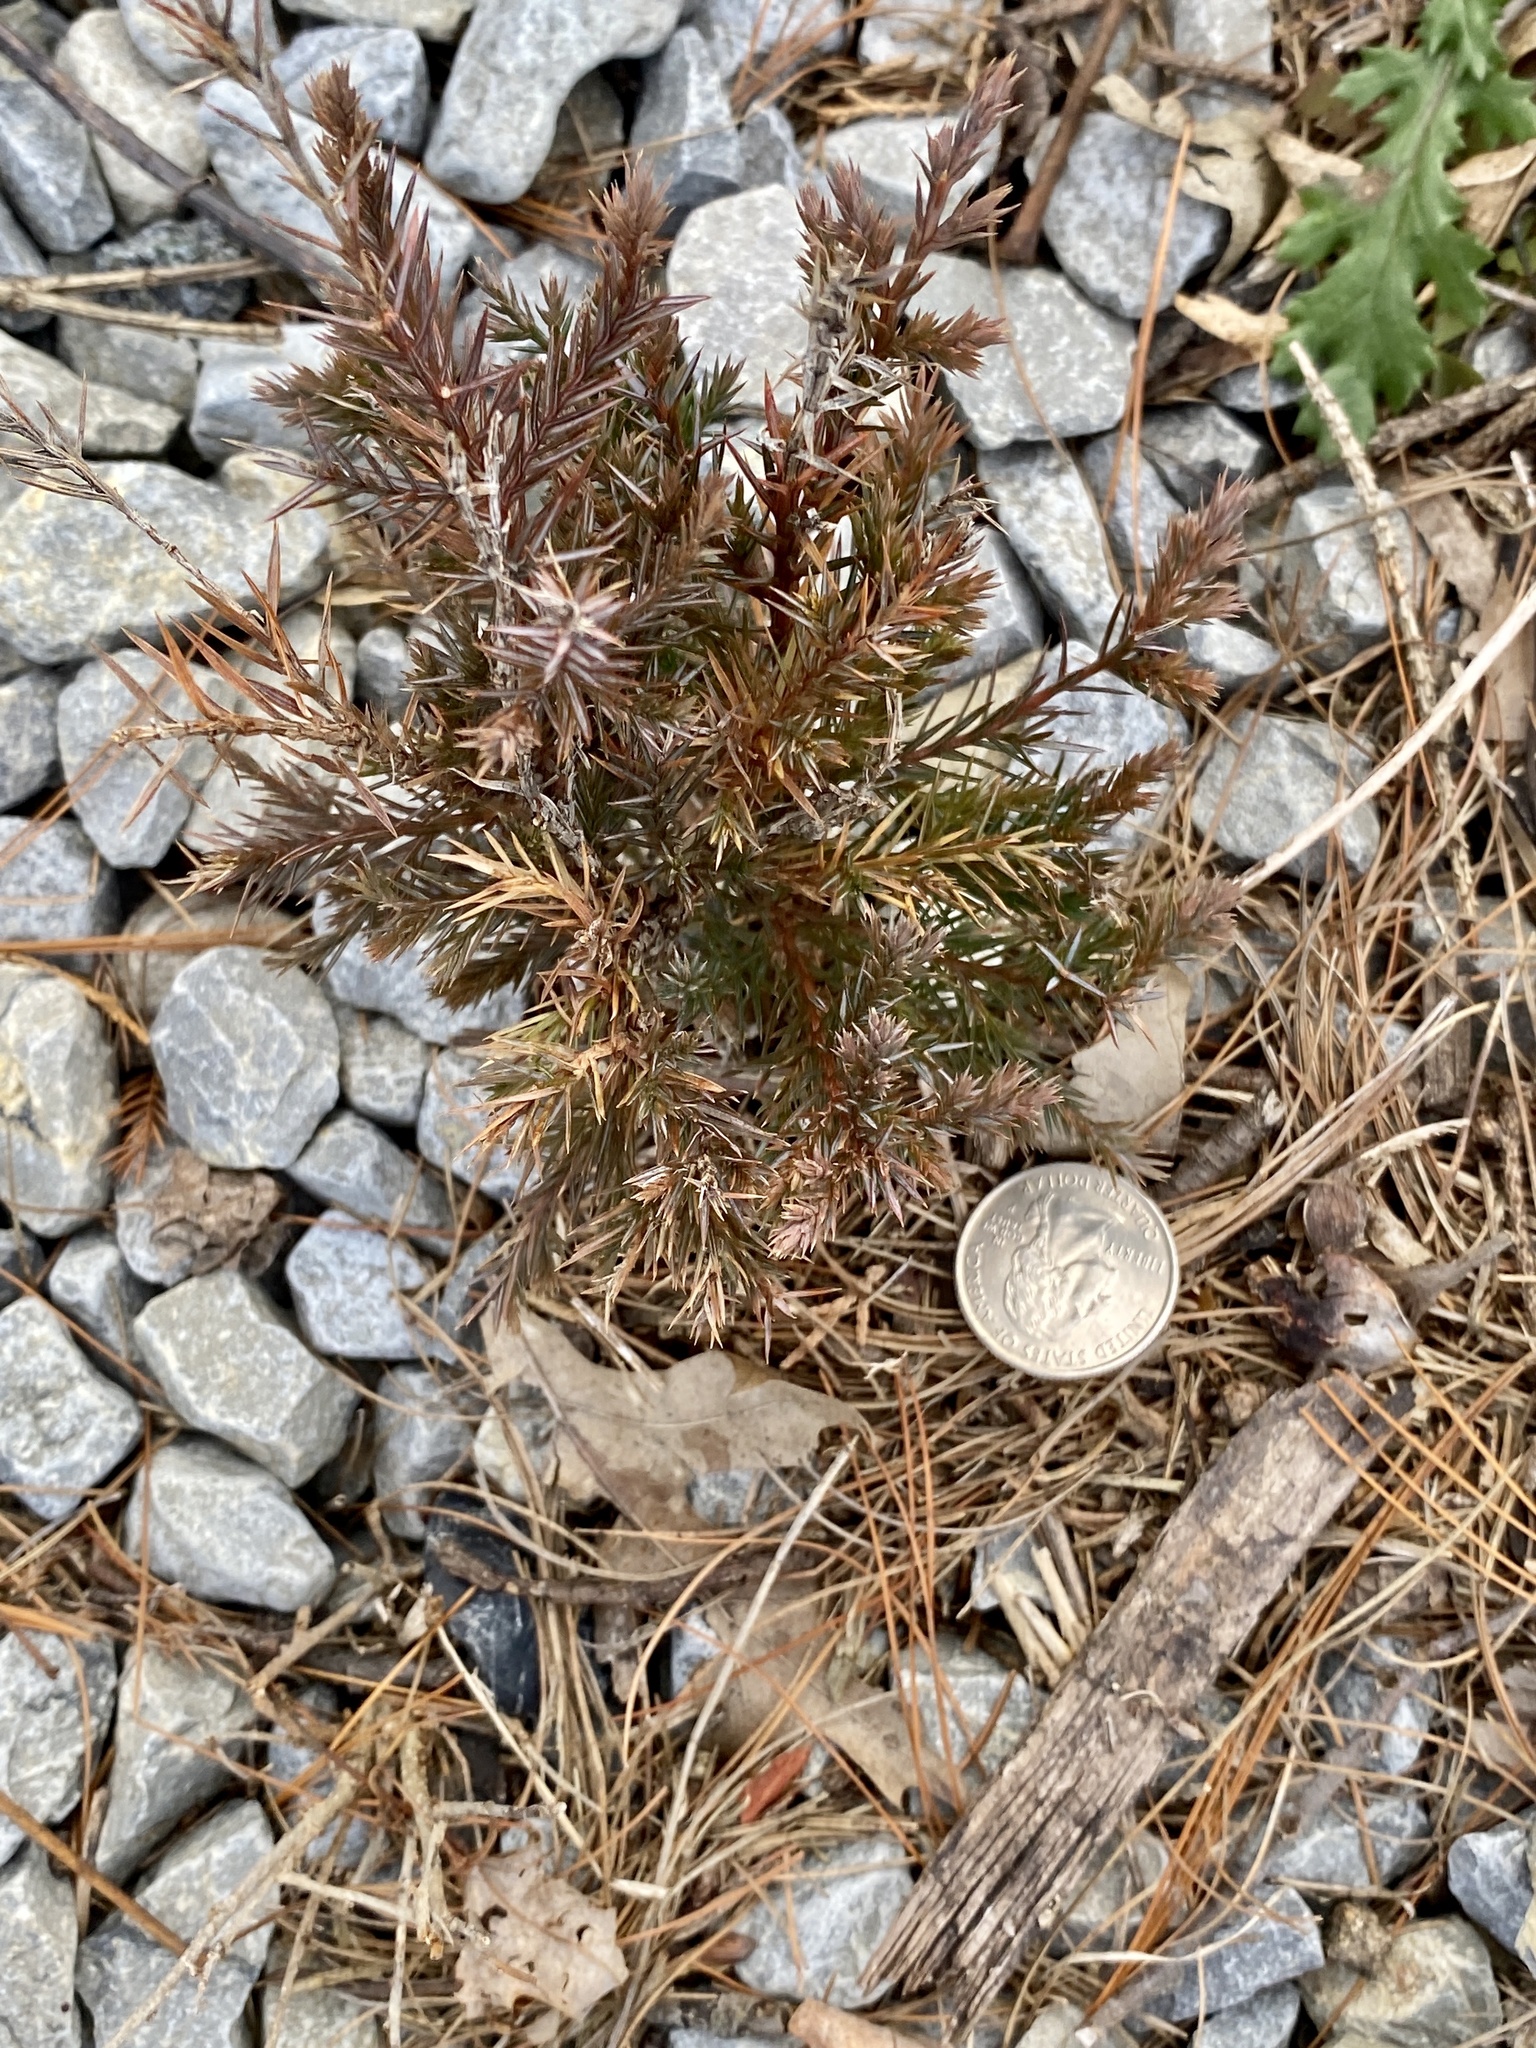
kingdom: Plantae
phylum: Tracheophyta
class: Pinopsida
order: Pinales
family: Cupressaceae
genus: Juniperus
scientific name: Juniperus virginiana
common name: Red juniper
